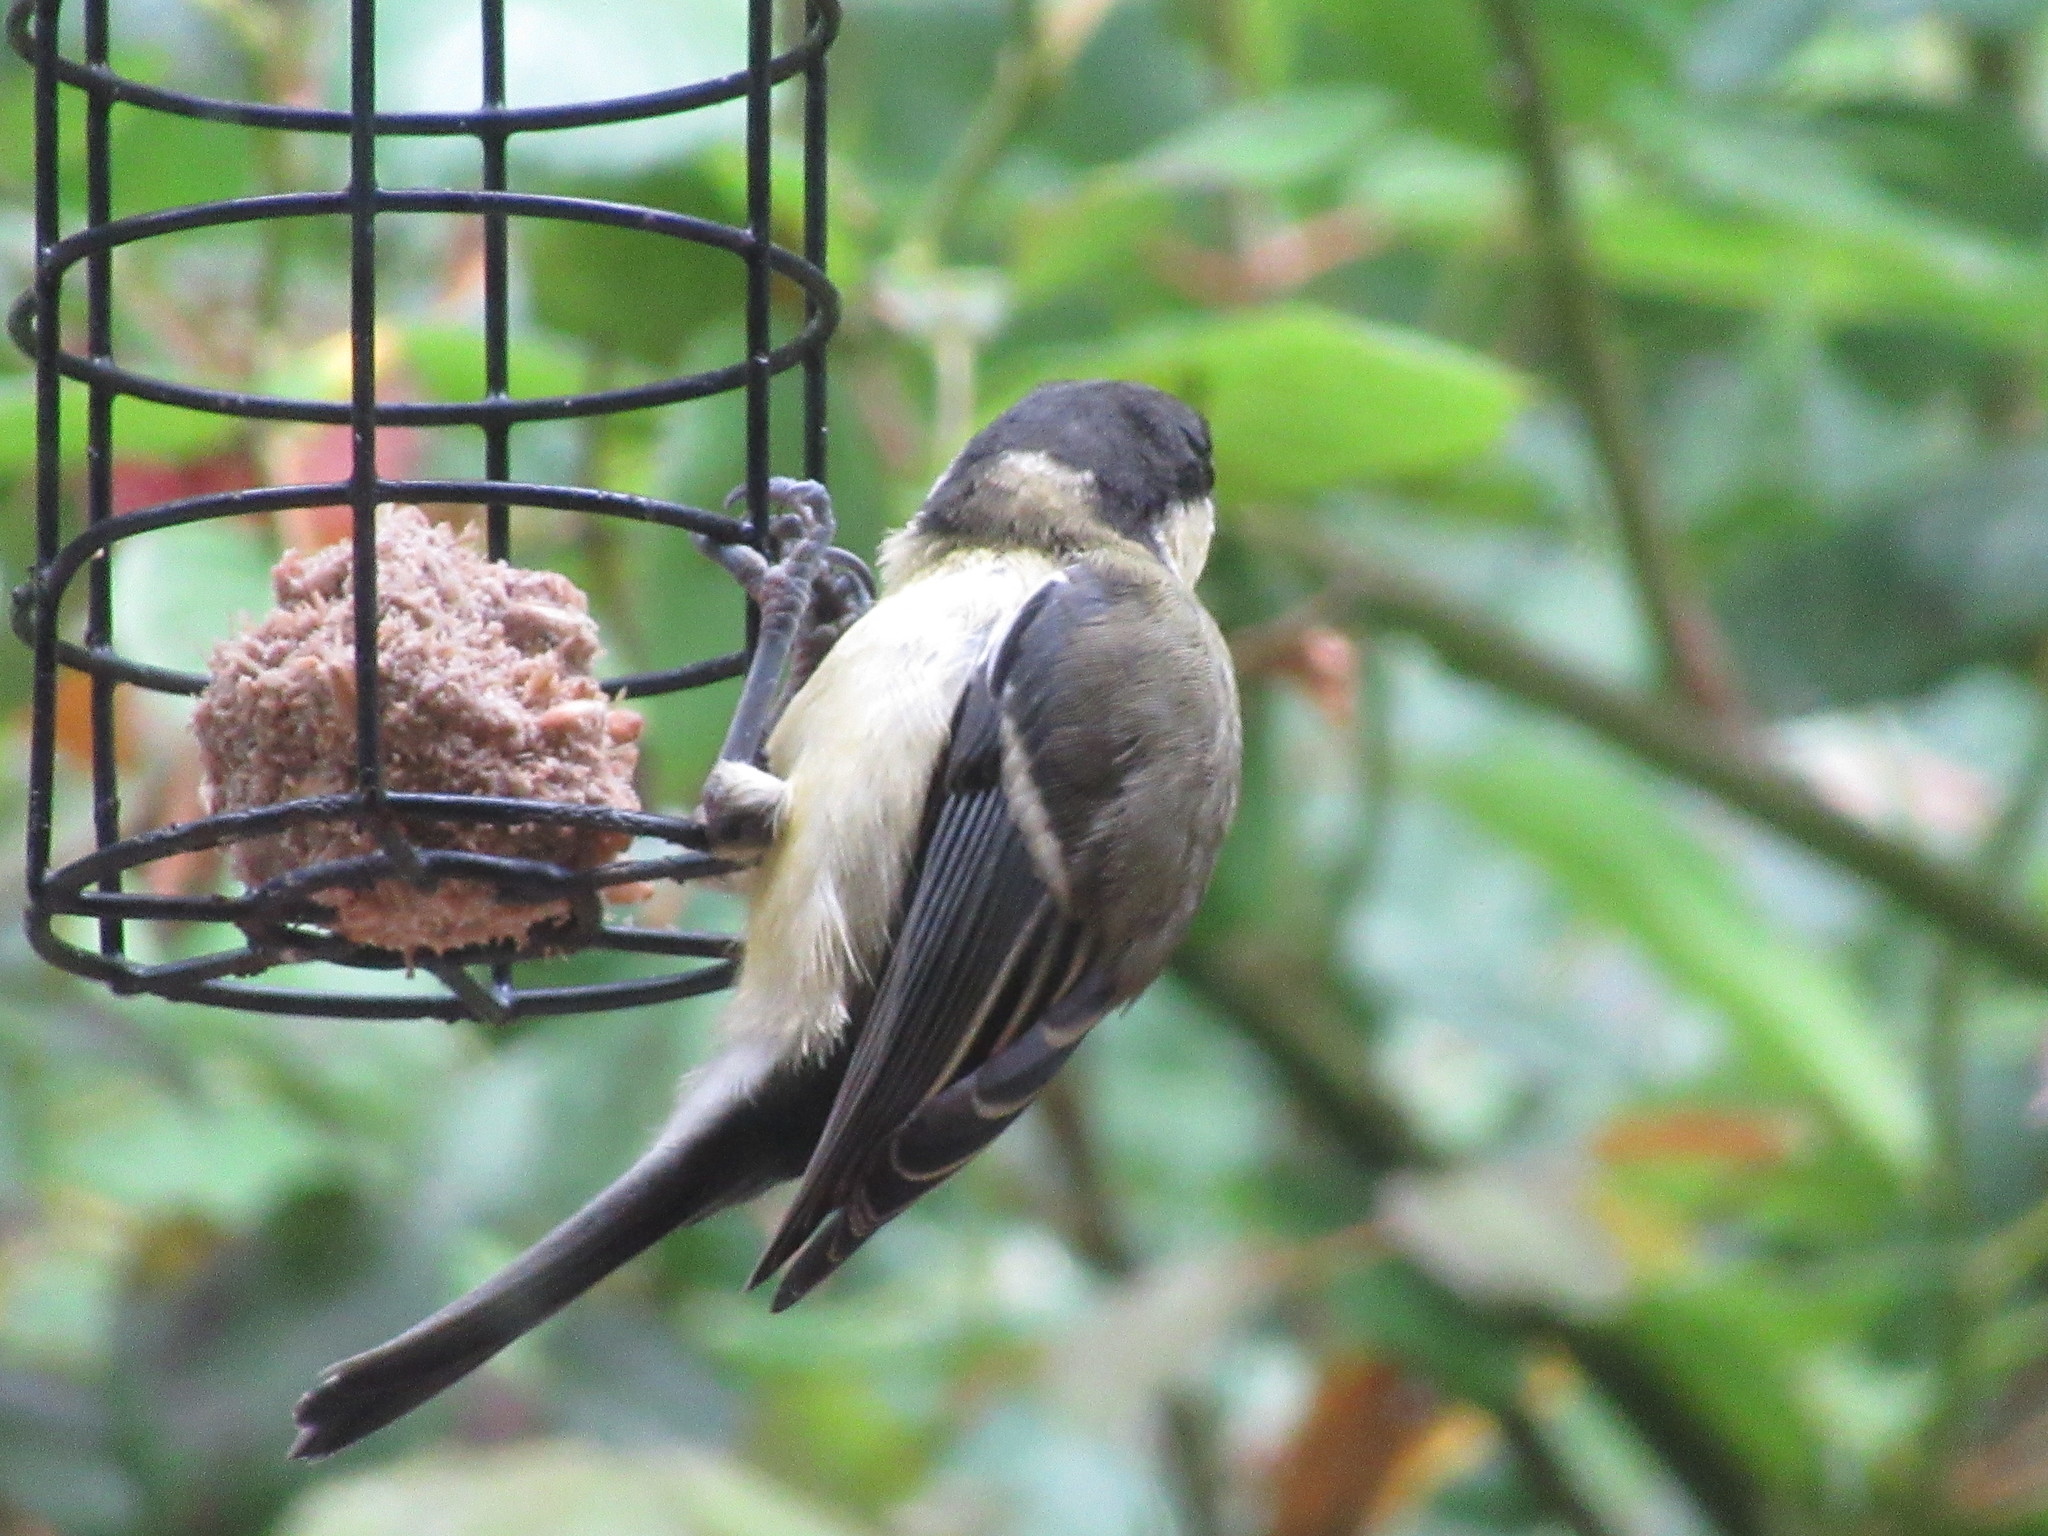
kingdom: Animalia
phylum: Chordata
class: Aves
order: Passeriformes
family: Paridae
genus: Parus
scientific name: Parus major
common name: Great tit
